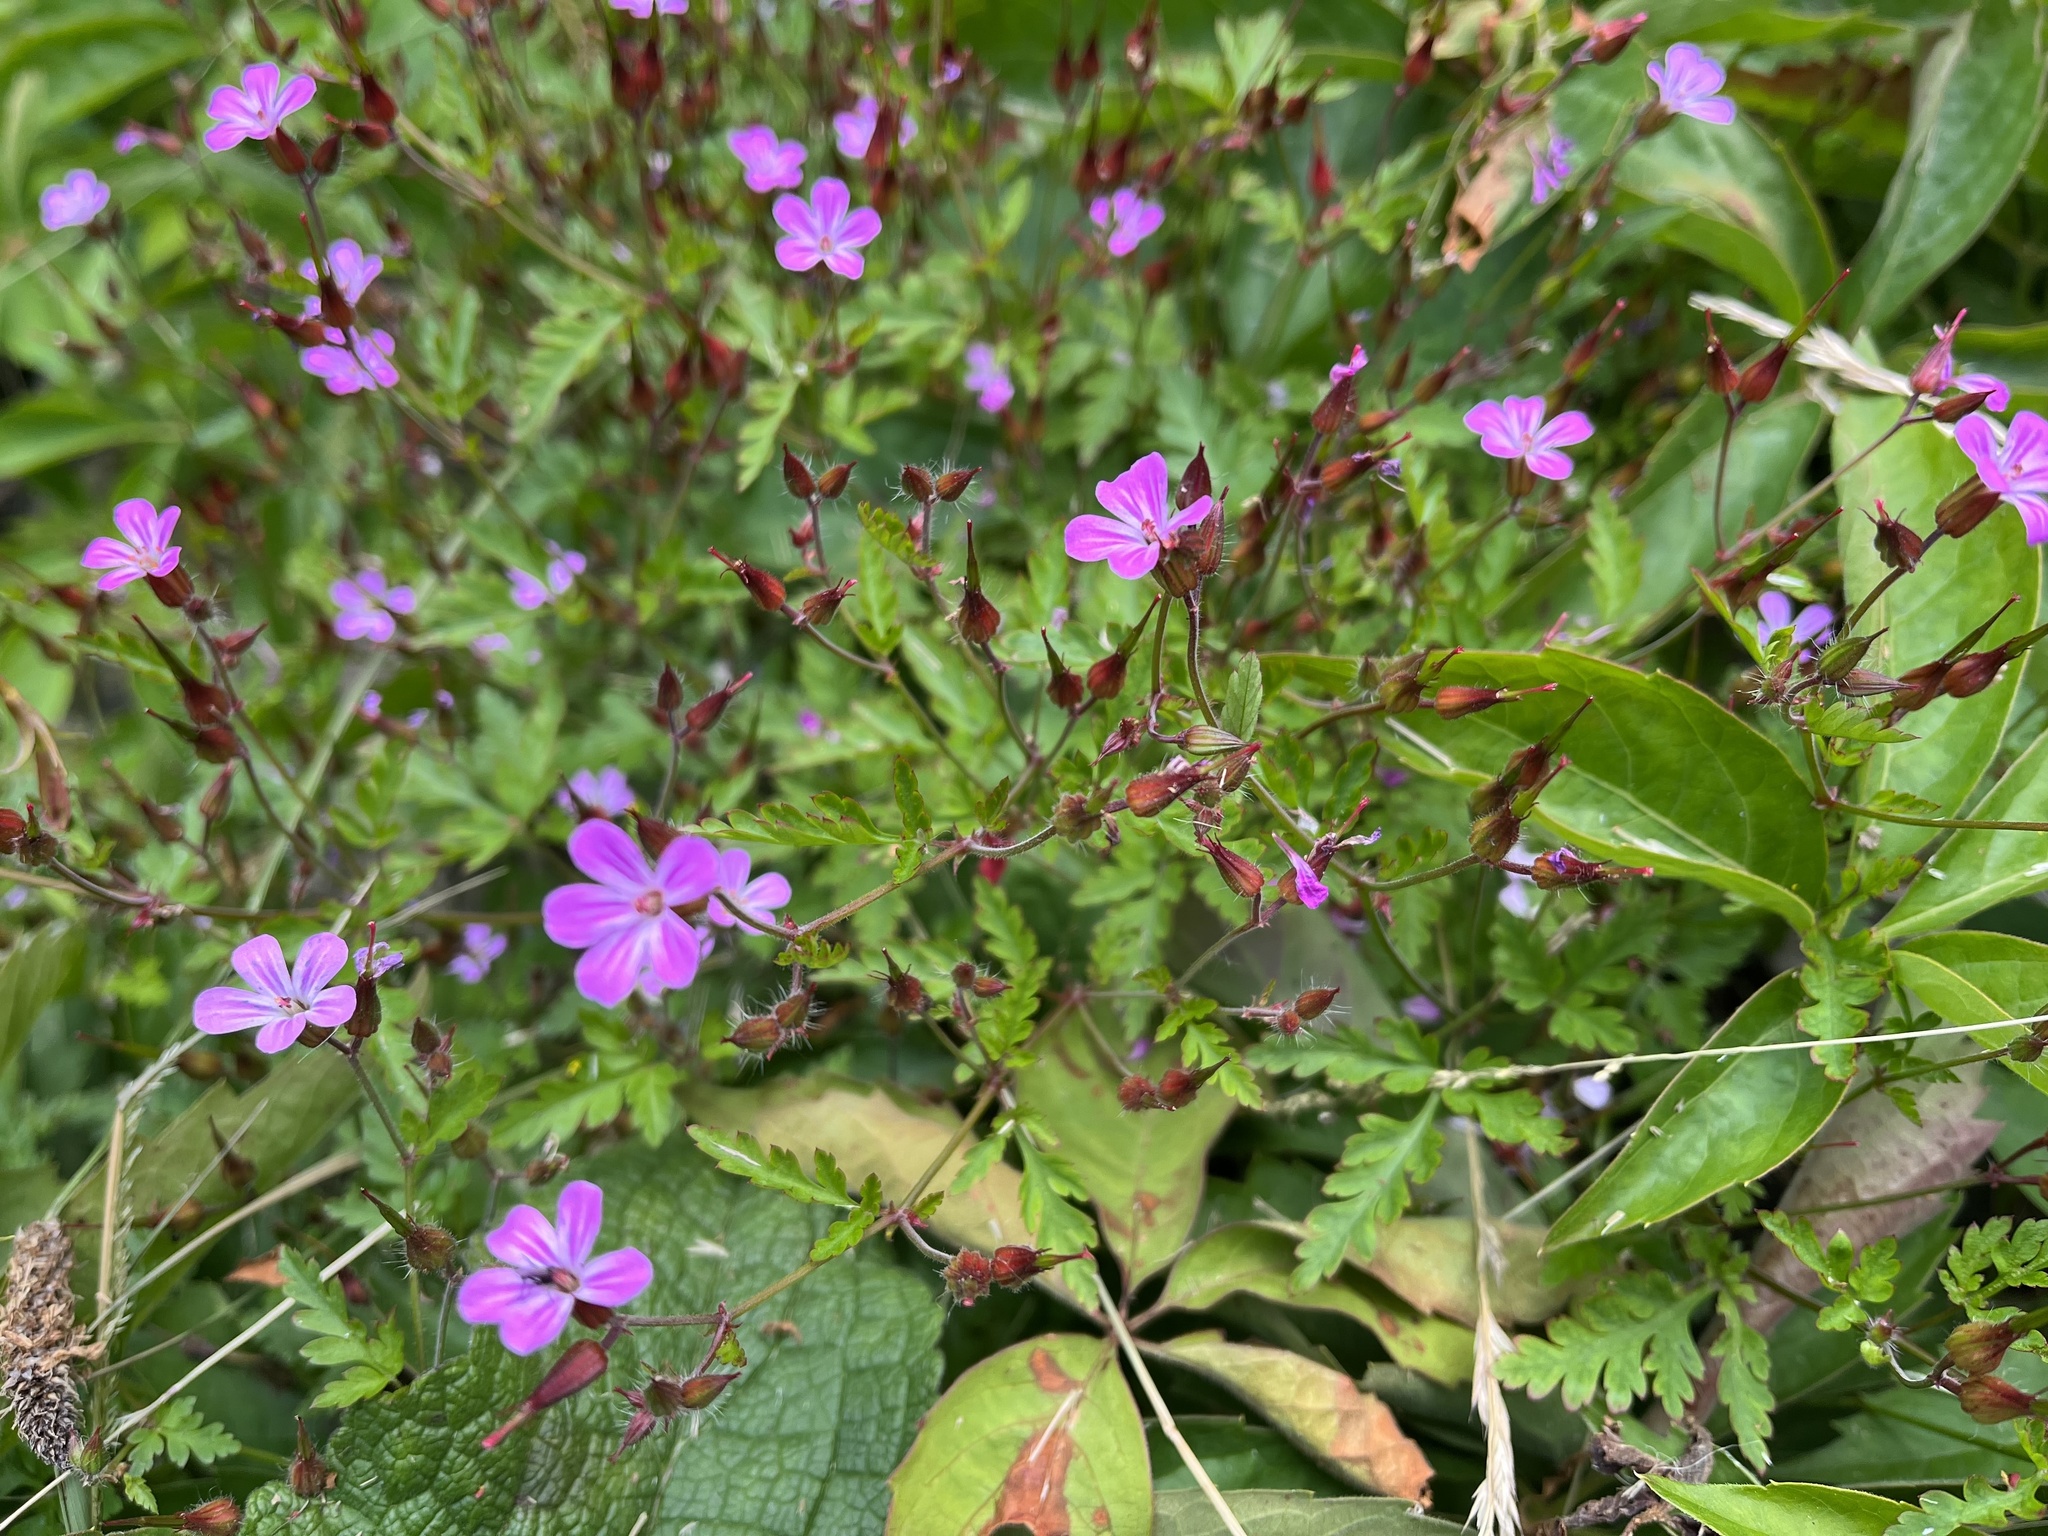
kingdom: Plantae
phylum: Tracheophyta
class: Magnoliopsida
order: Geraniales
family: Geraniaceae
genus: Geranium
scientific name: Geranium robertianum
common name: Herb-robert
